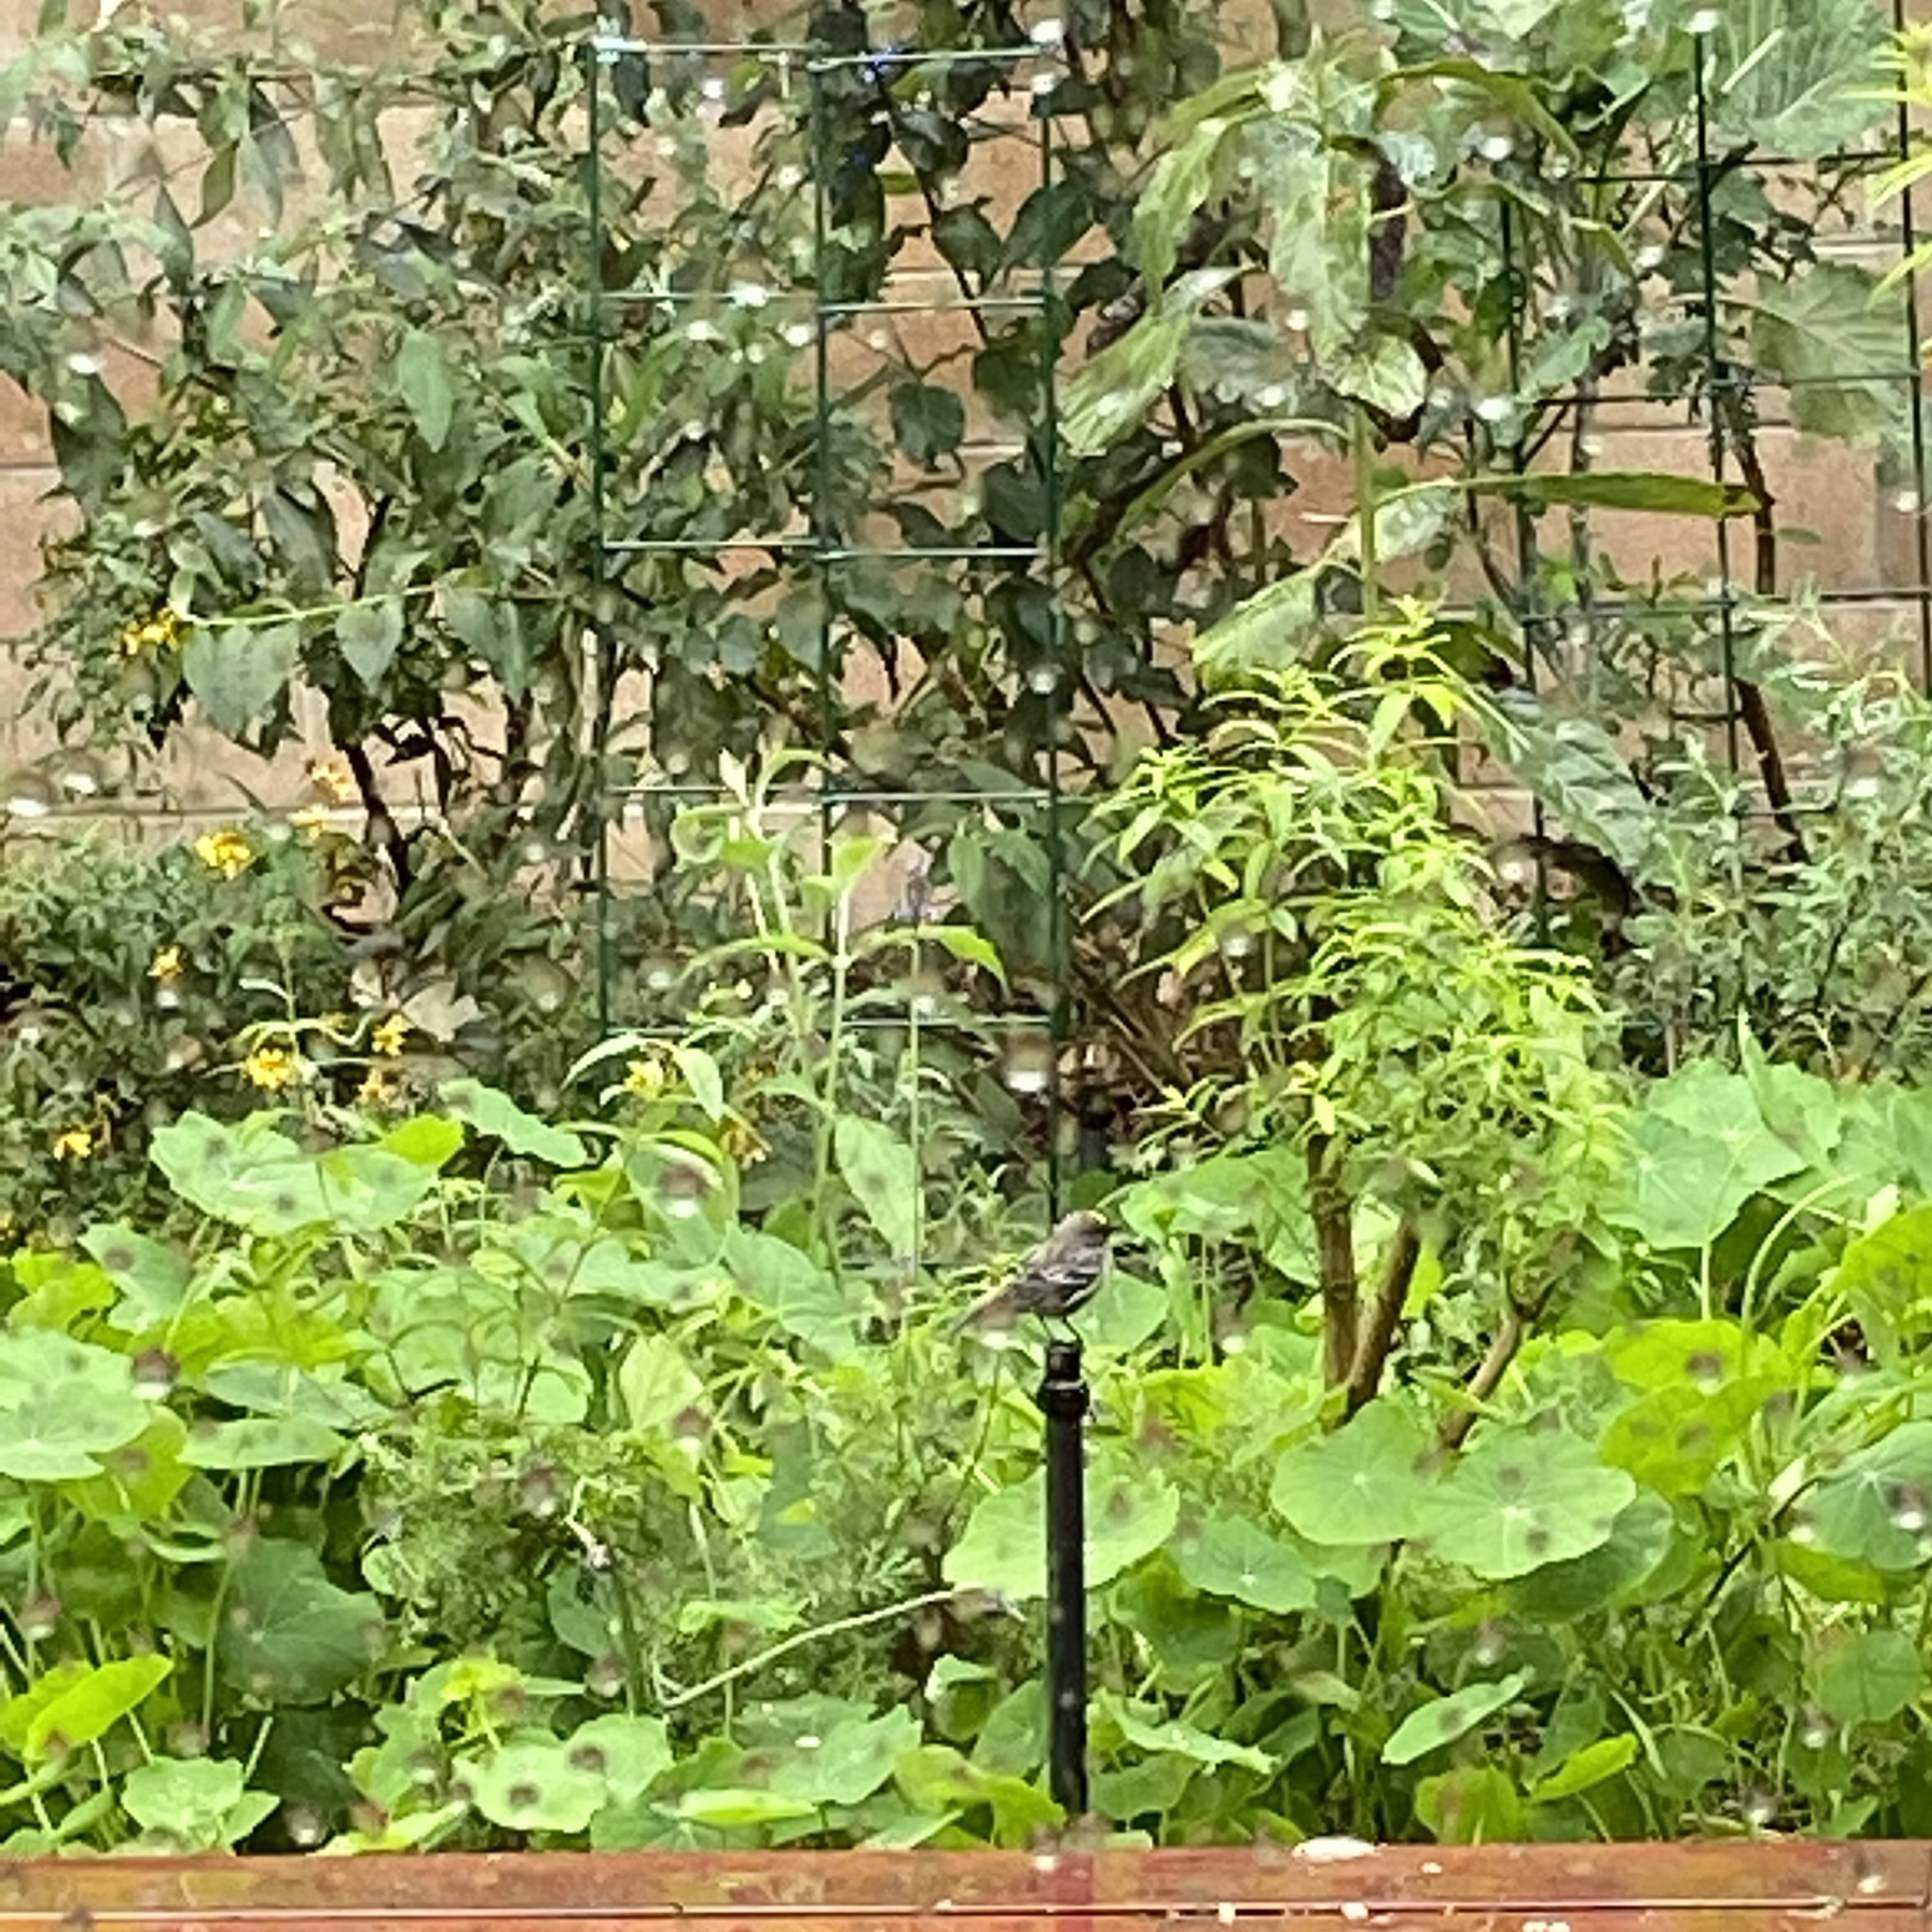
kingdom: Animalia
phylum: Chordata
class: Aves
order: Passeriformes
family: Parulidae
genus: Setophaga
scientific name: Setophaga coronata
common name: Myrtle warbler
